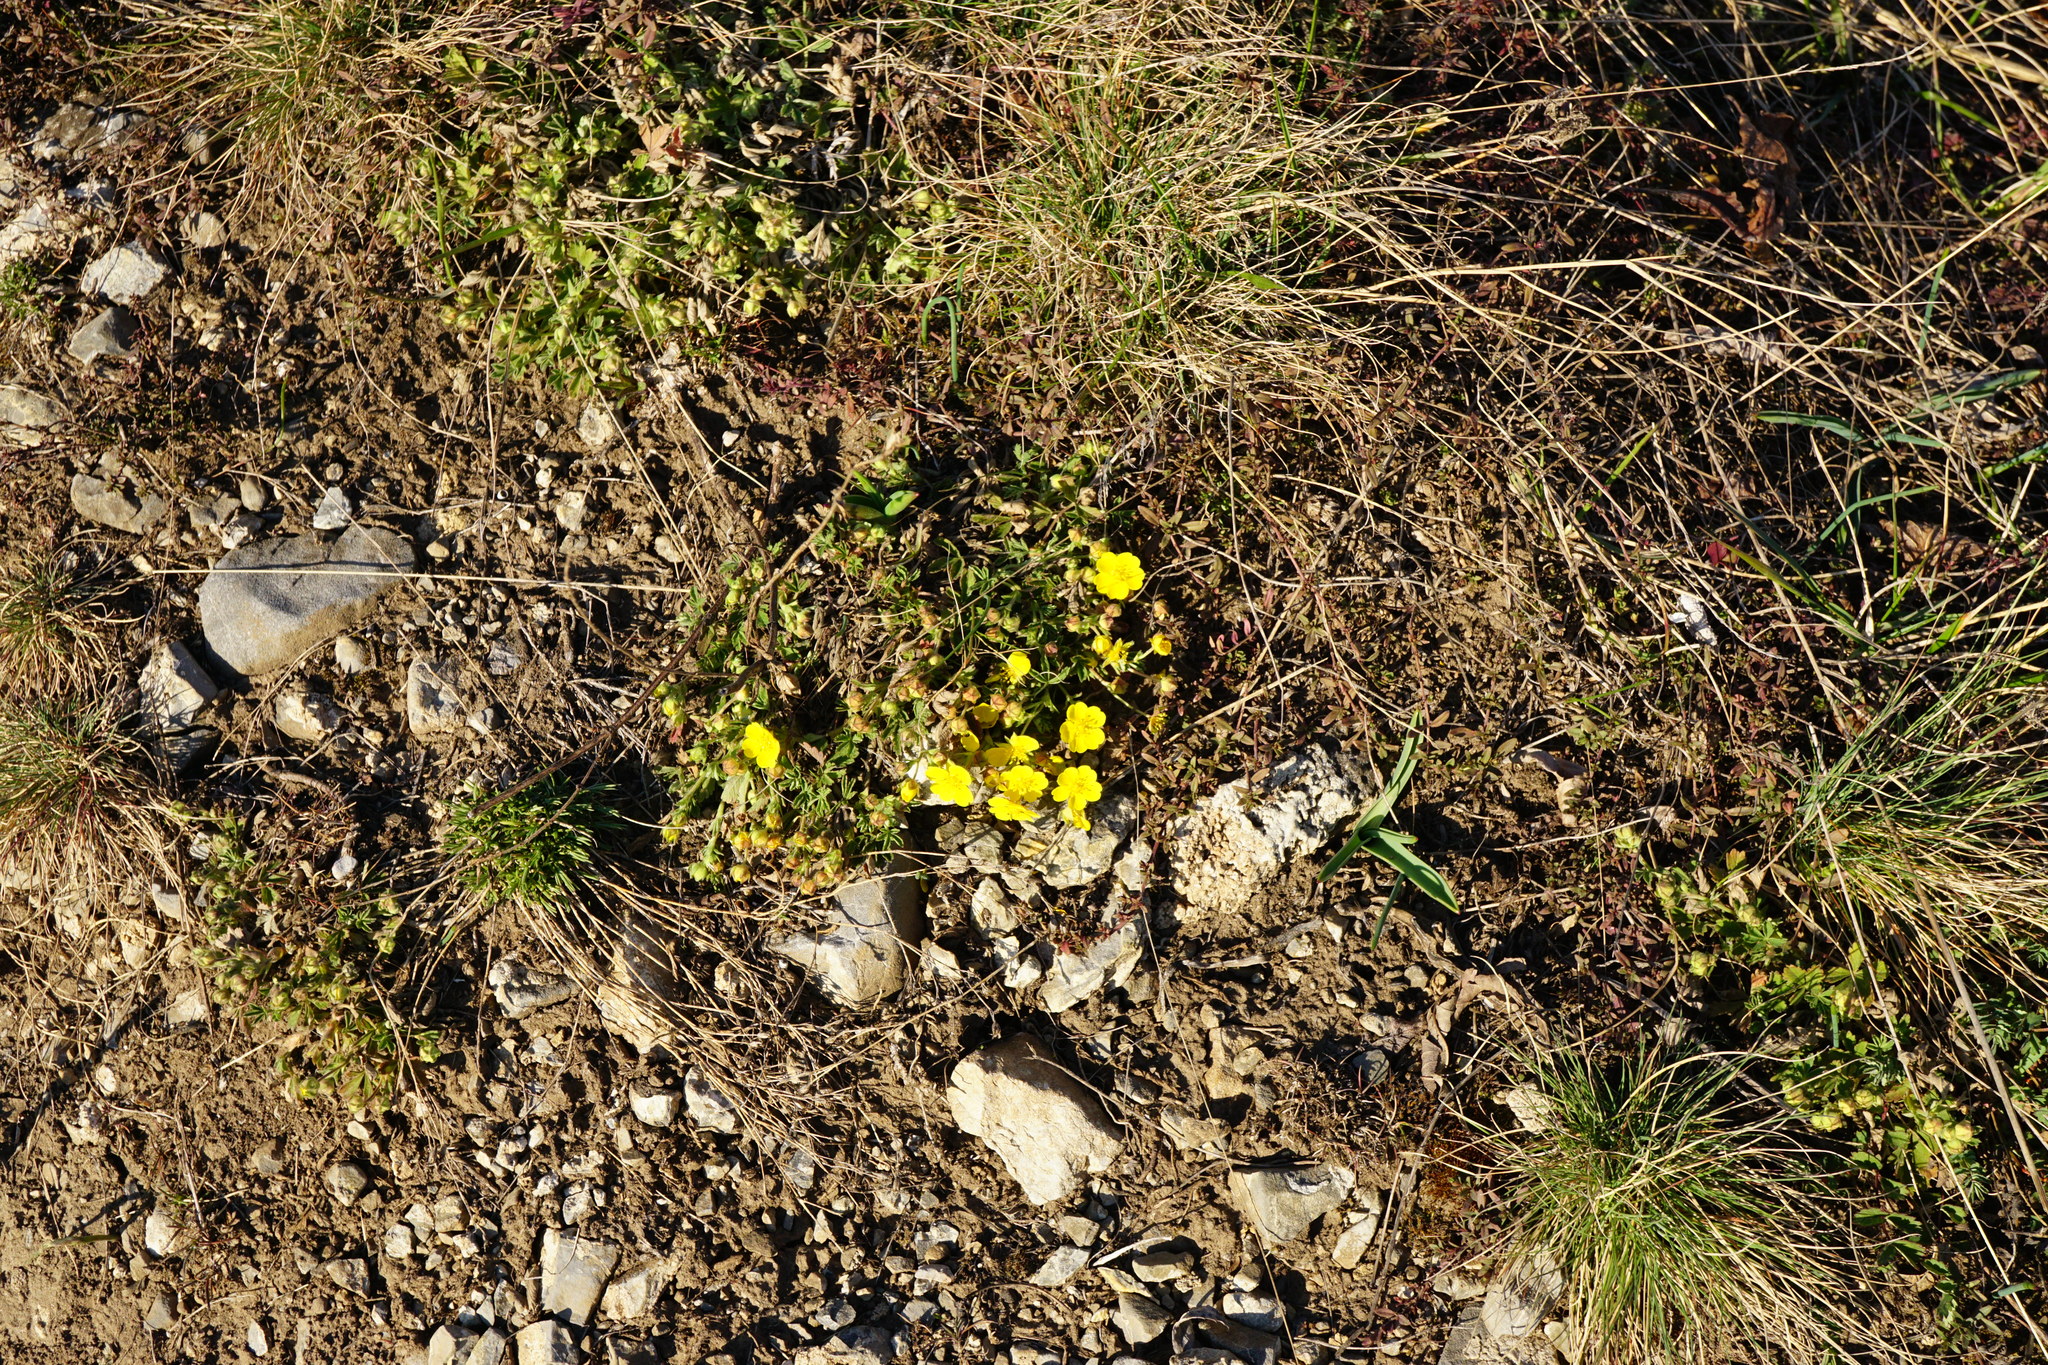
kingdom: Plantae
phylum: Tracheophyta
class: Magnoliopsida
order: Rosales
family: Rosaceae
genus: Potentilla
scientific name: Potentilla incana
